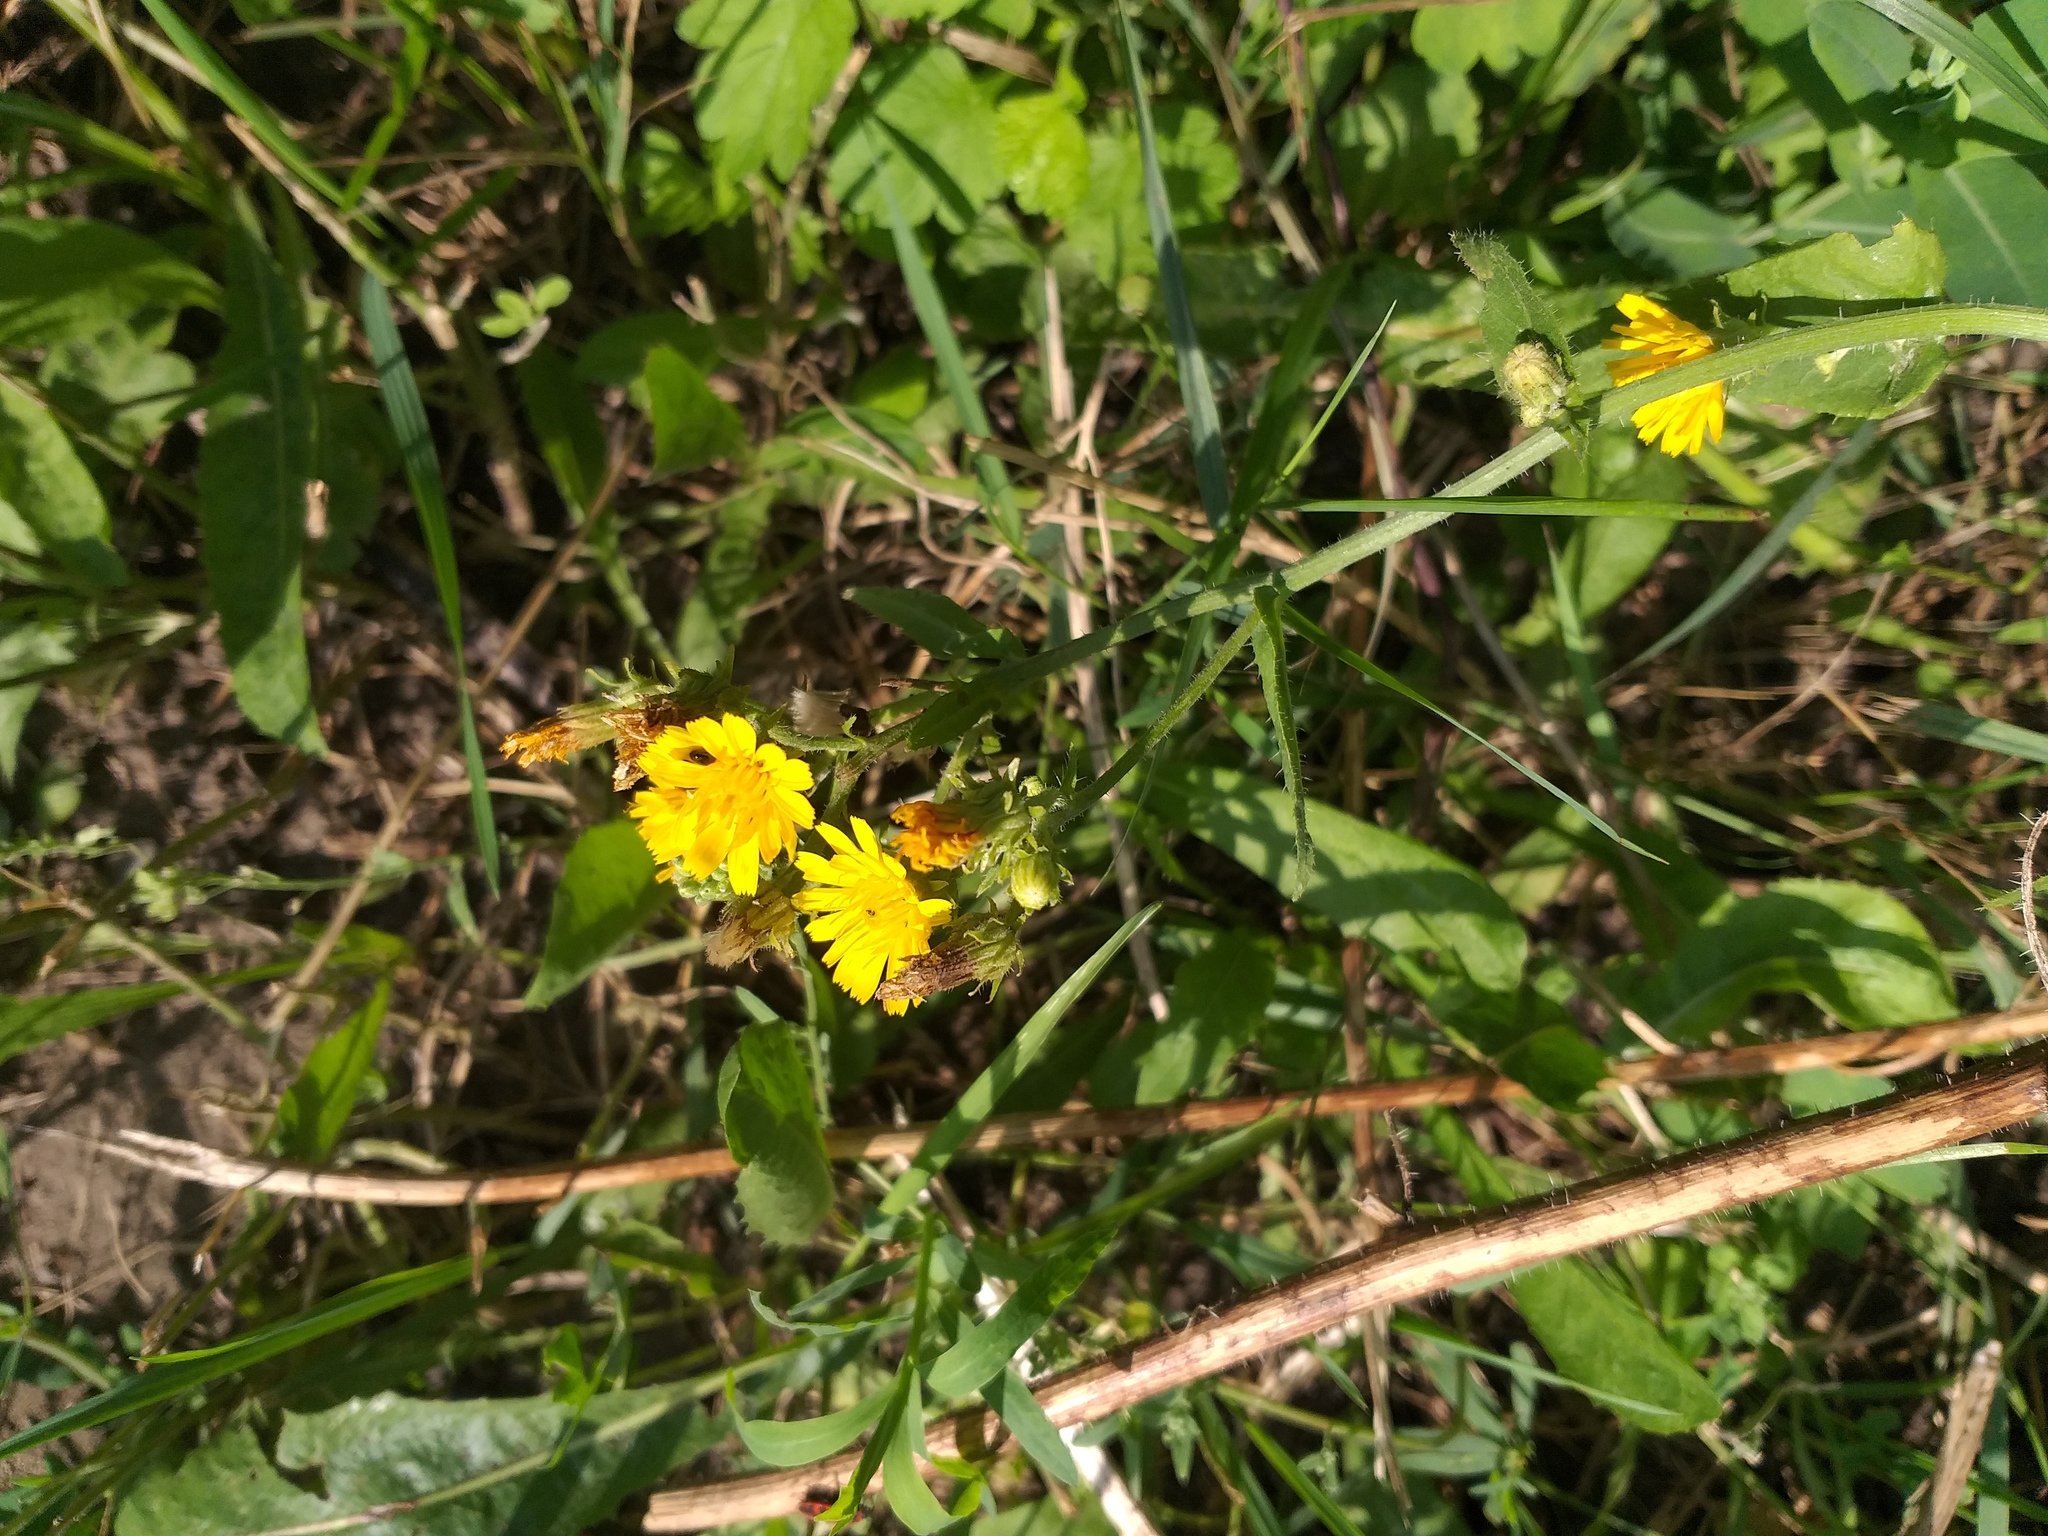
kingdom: Plantae
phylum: Tracheophyta
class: Magnoliopsida
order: Asterales
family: Asteraceae
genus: Picris
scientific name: Picris hieracioides
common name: Hawkweed oxtongue
